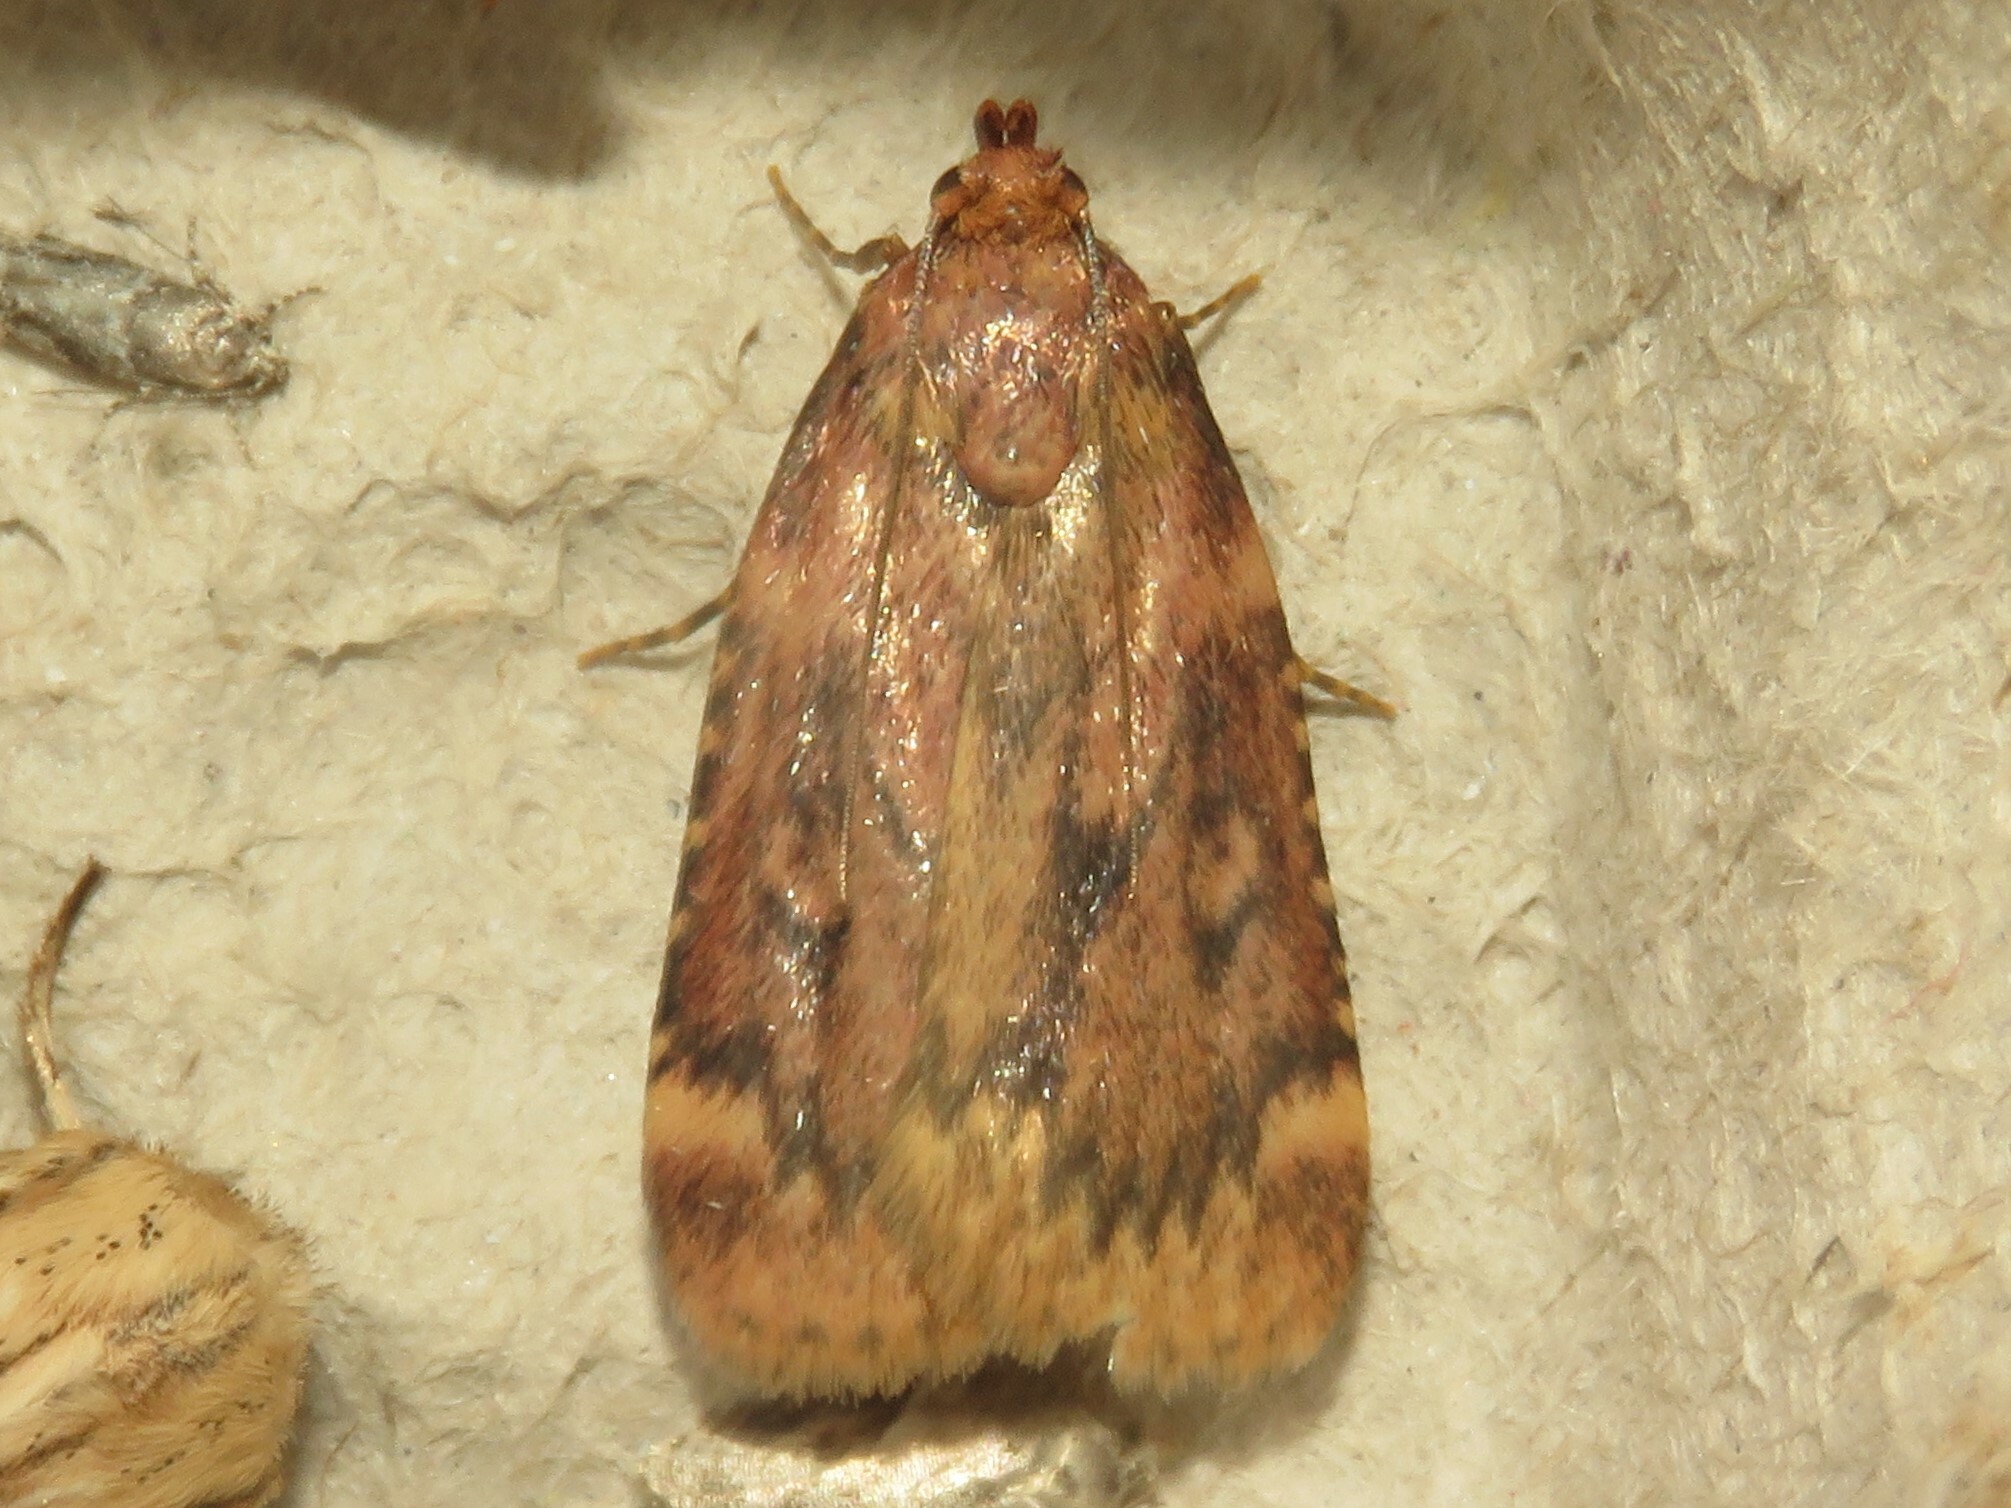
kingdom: Animalia
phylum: Arthropoda
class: Insecta
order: Lepidoptera
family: Pyralidae
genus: Aglossa
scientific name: Aglossa cuprina
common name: Grease moth
